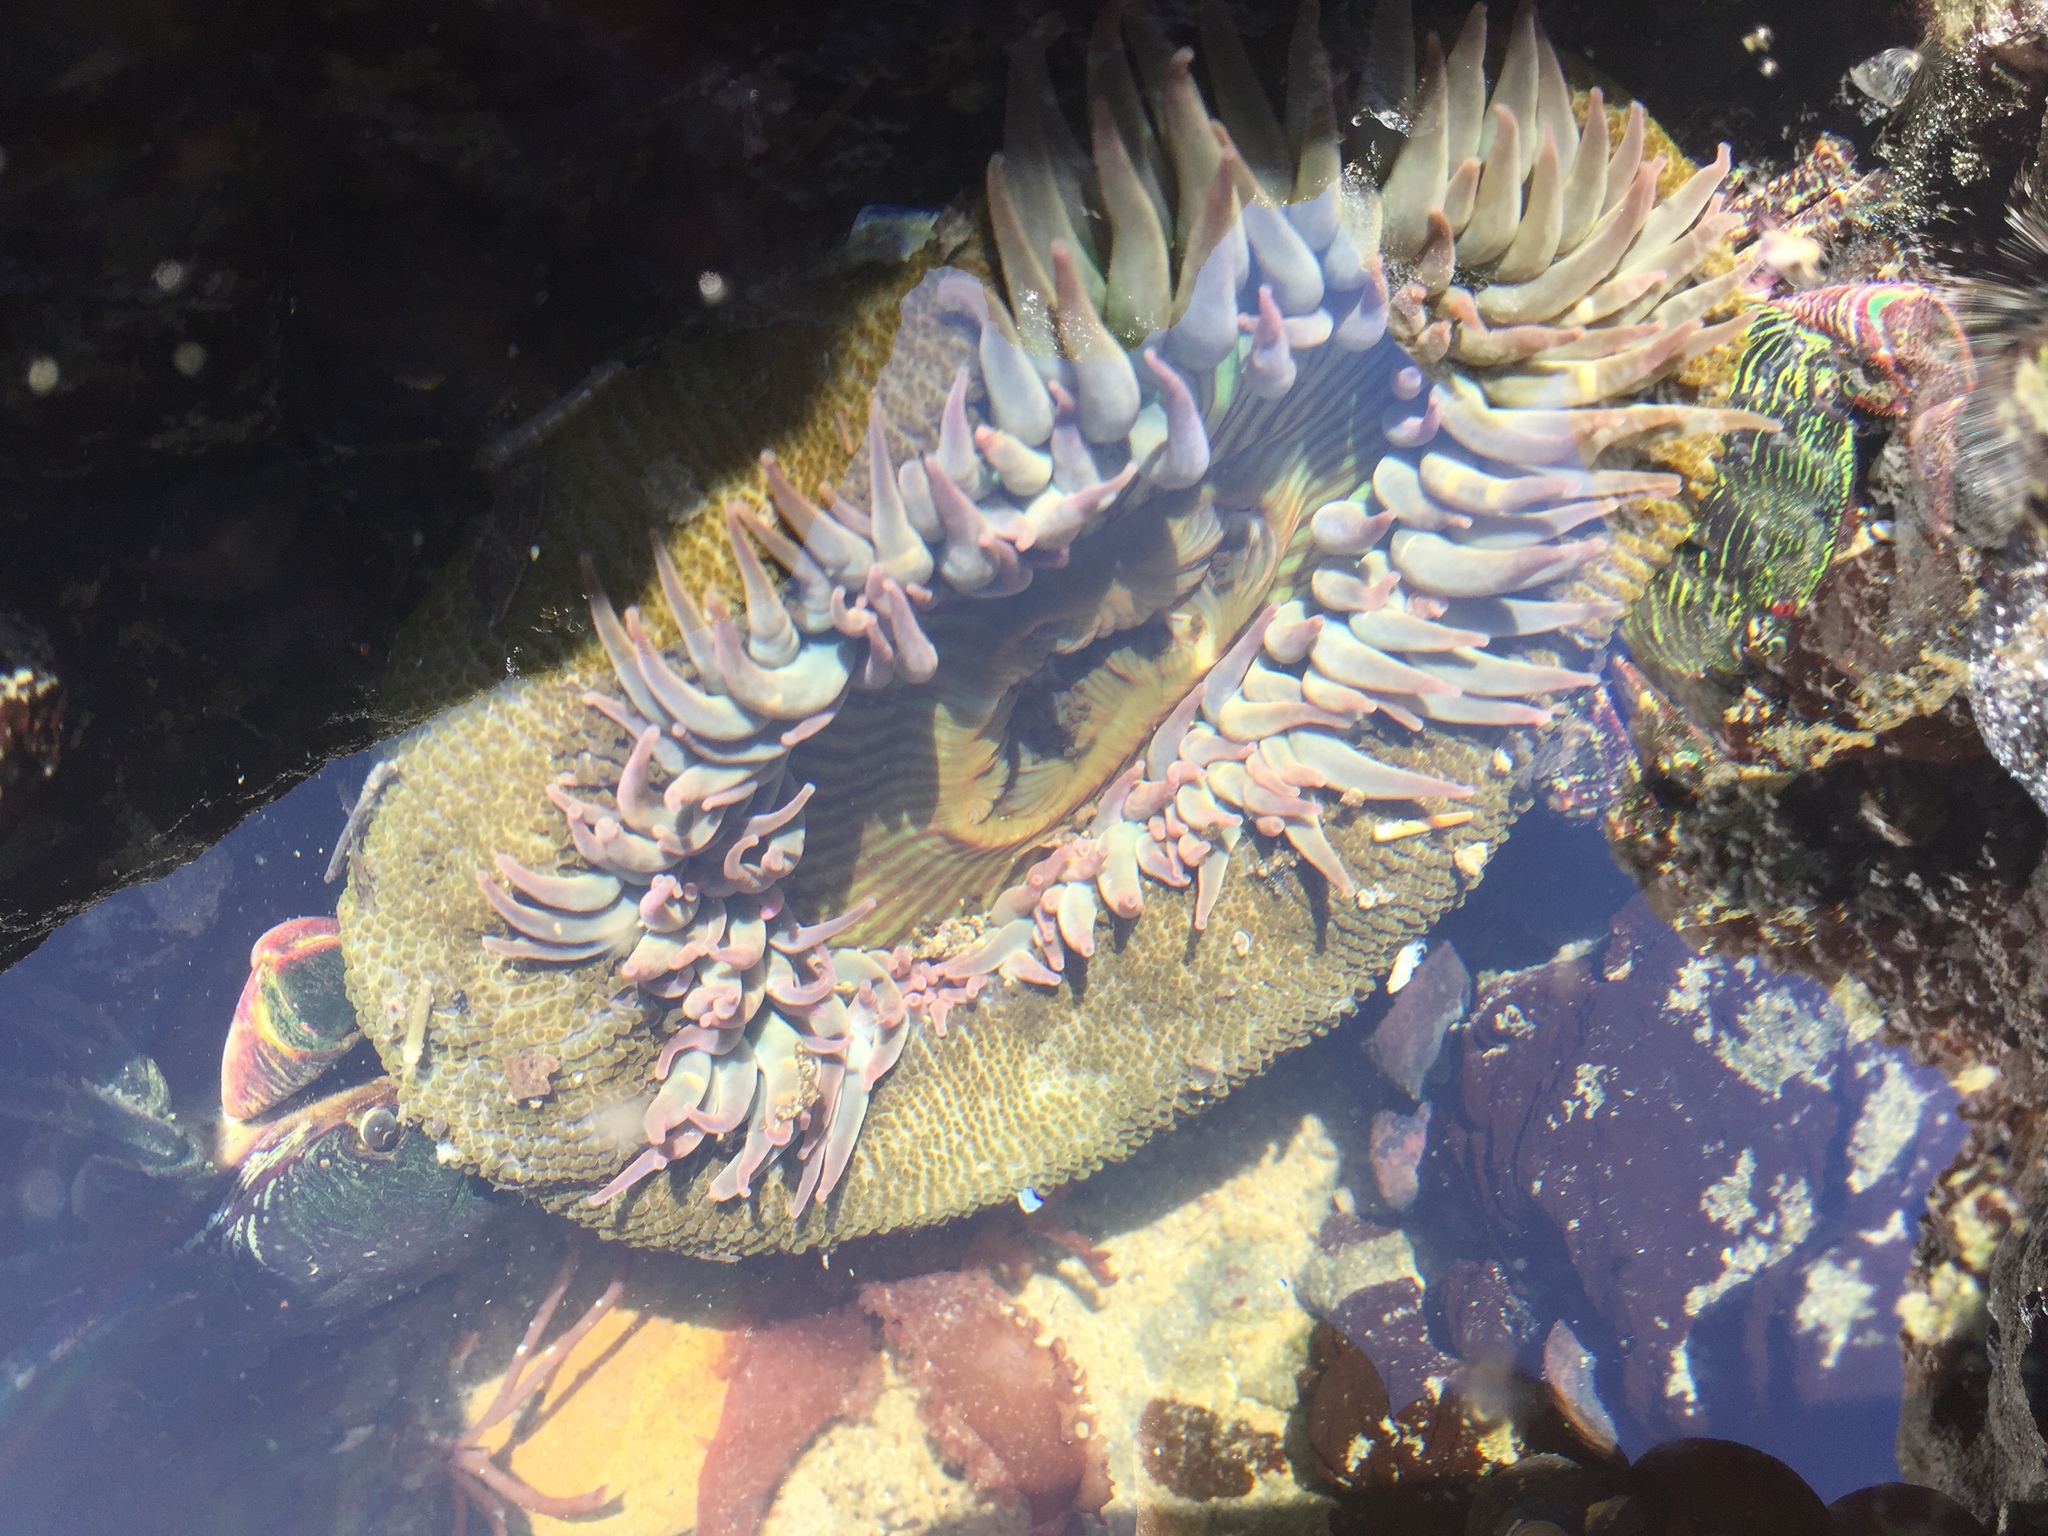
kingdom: Animalia
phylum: Cnidaria
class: Anthozoa
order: Actiniaria
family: Actiniidae
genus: Anthopleura
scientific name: Anthopleura sola
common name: Sun anemone
